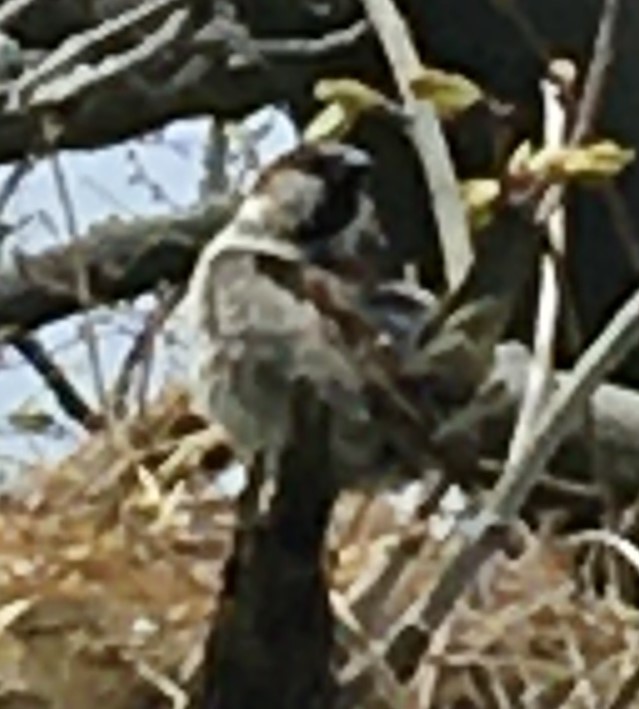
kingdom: Animalia
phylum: Chordata
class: Aves
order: Passeriformes
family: Passeridae
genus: Passer
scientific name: Passer domesticus
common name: House sparrow
